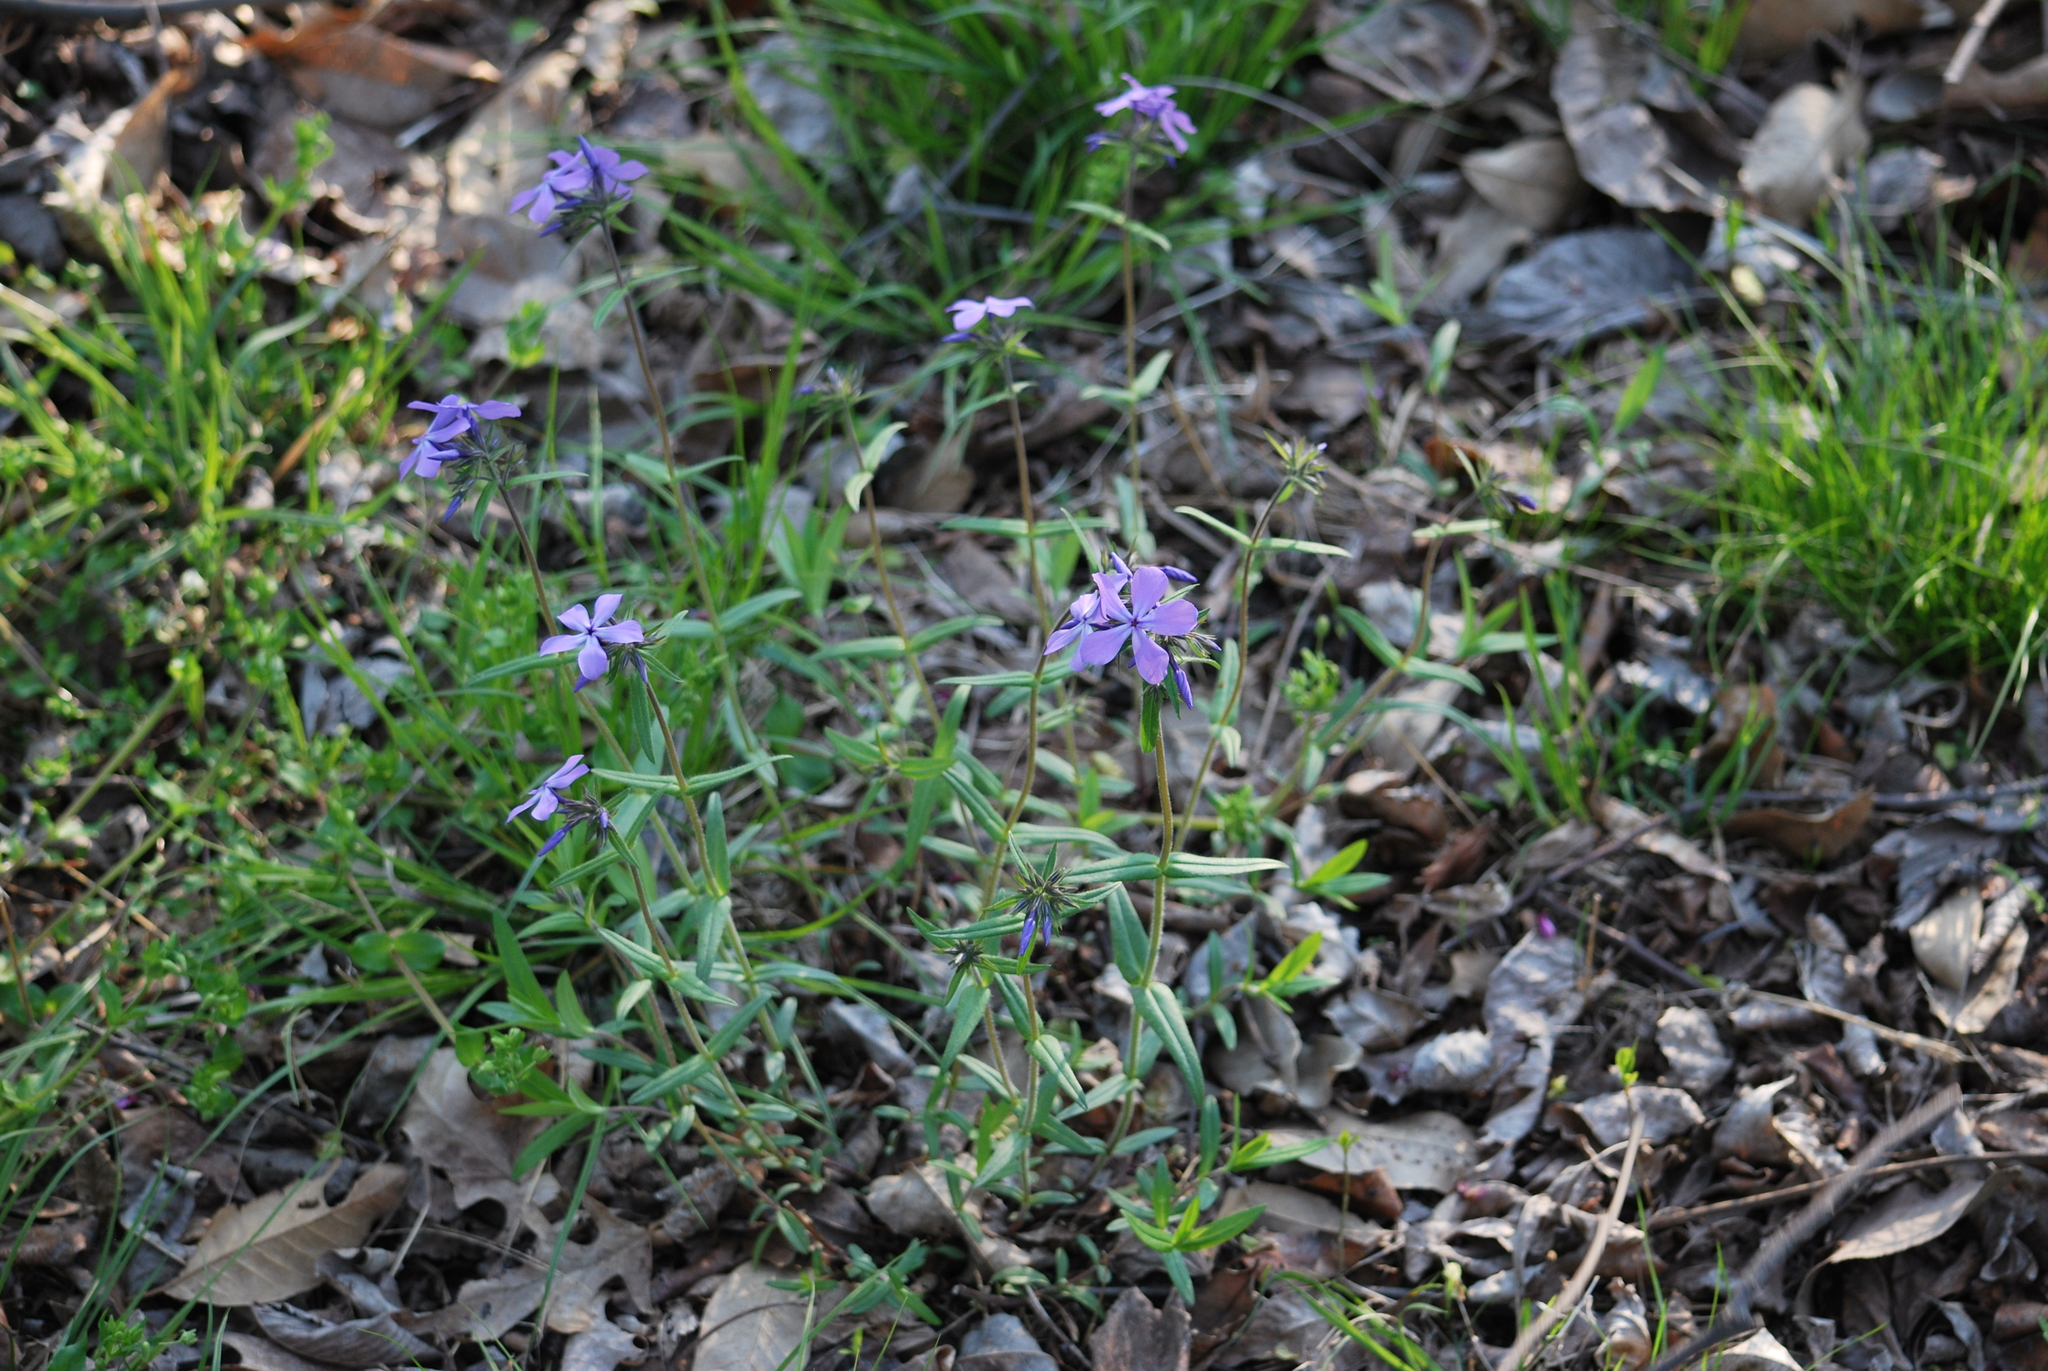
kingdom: Plantae
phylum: Tracheophyta
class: Magnoliopsida
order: Ericales
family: Polemoniaceae
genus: Phlox
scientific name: Phlox divaricata
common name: Blue phlox
